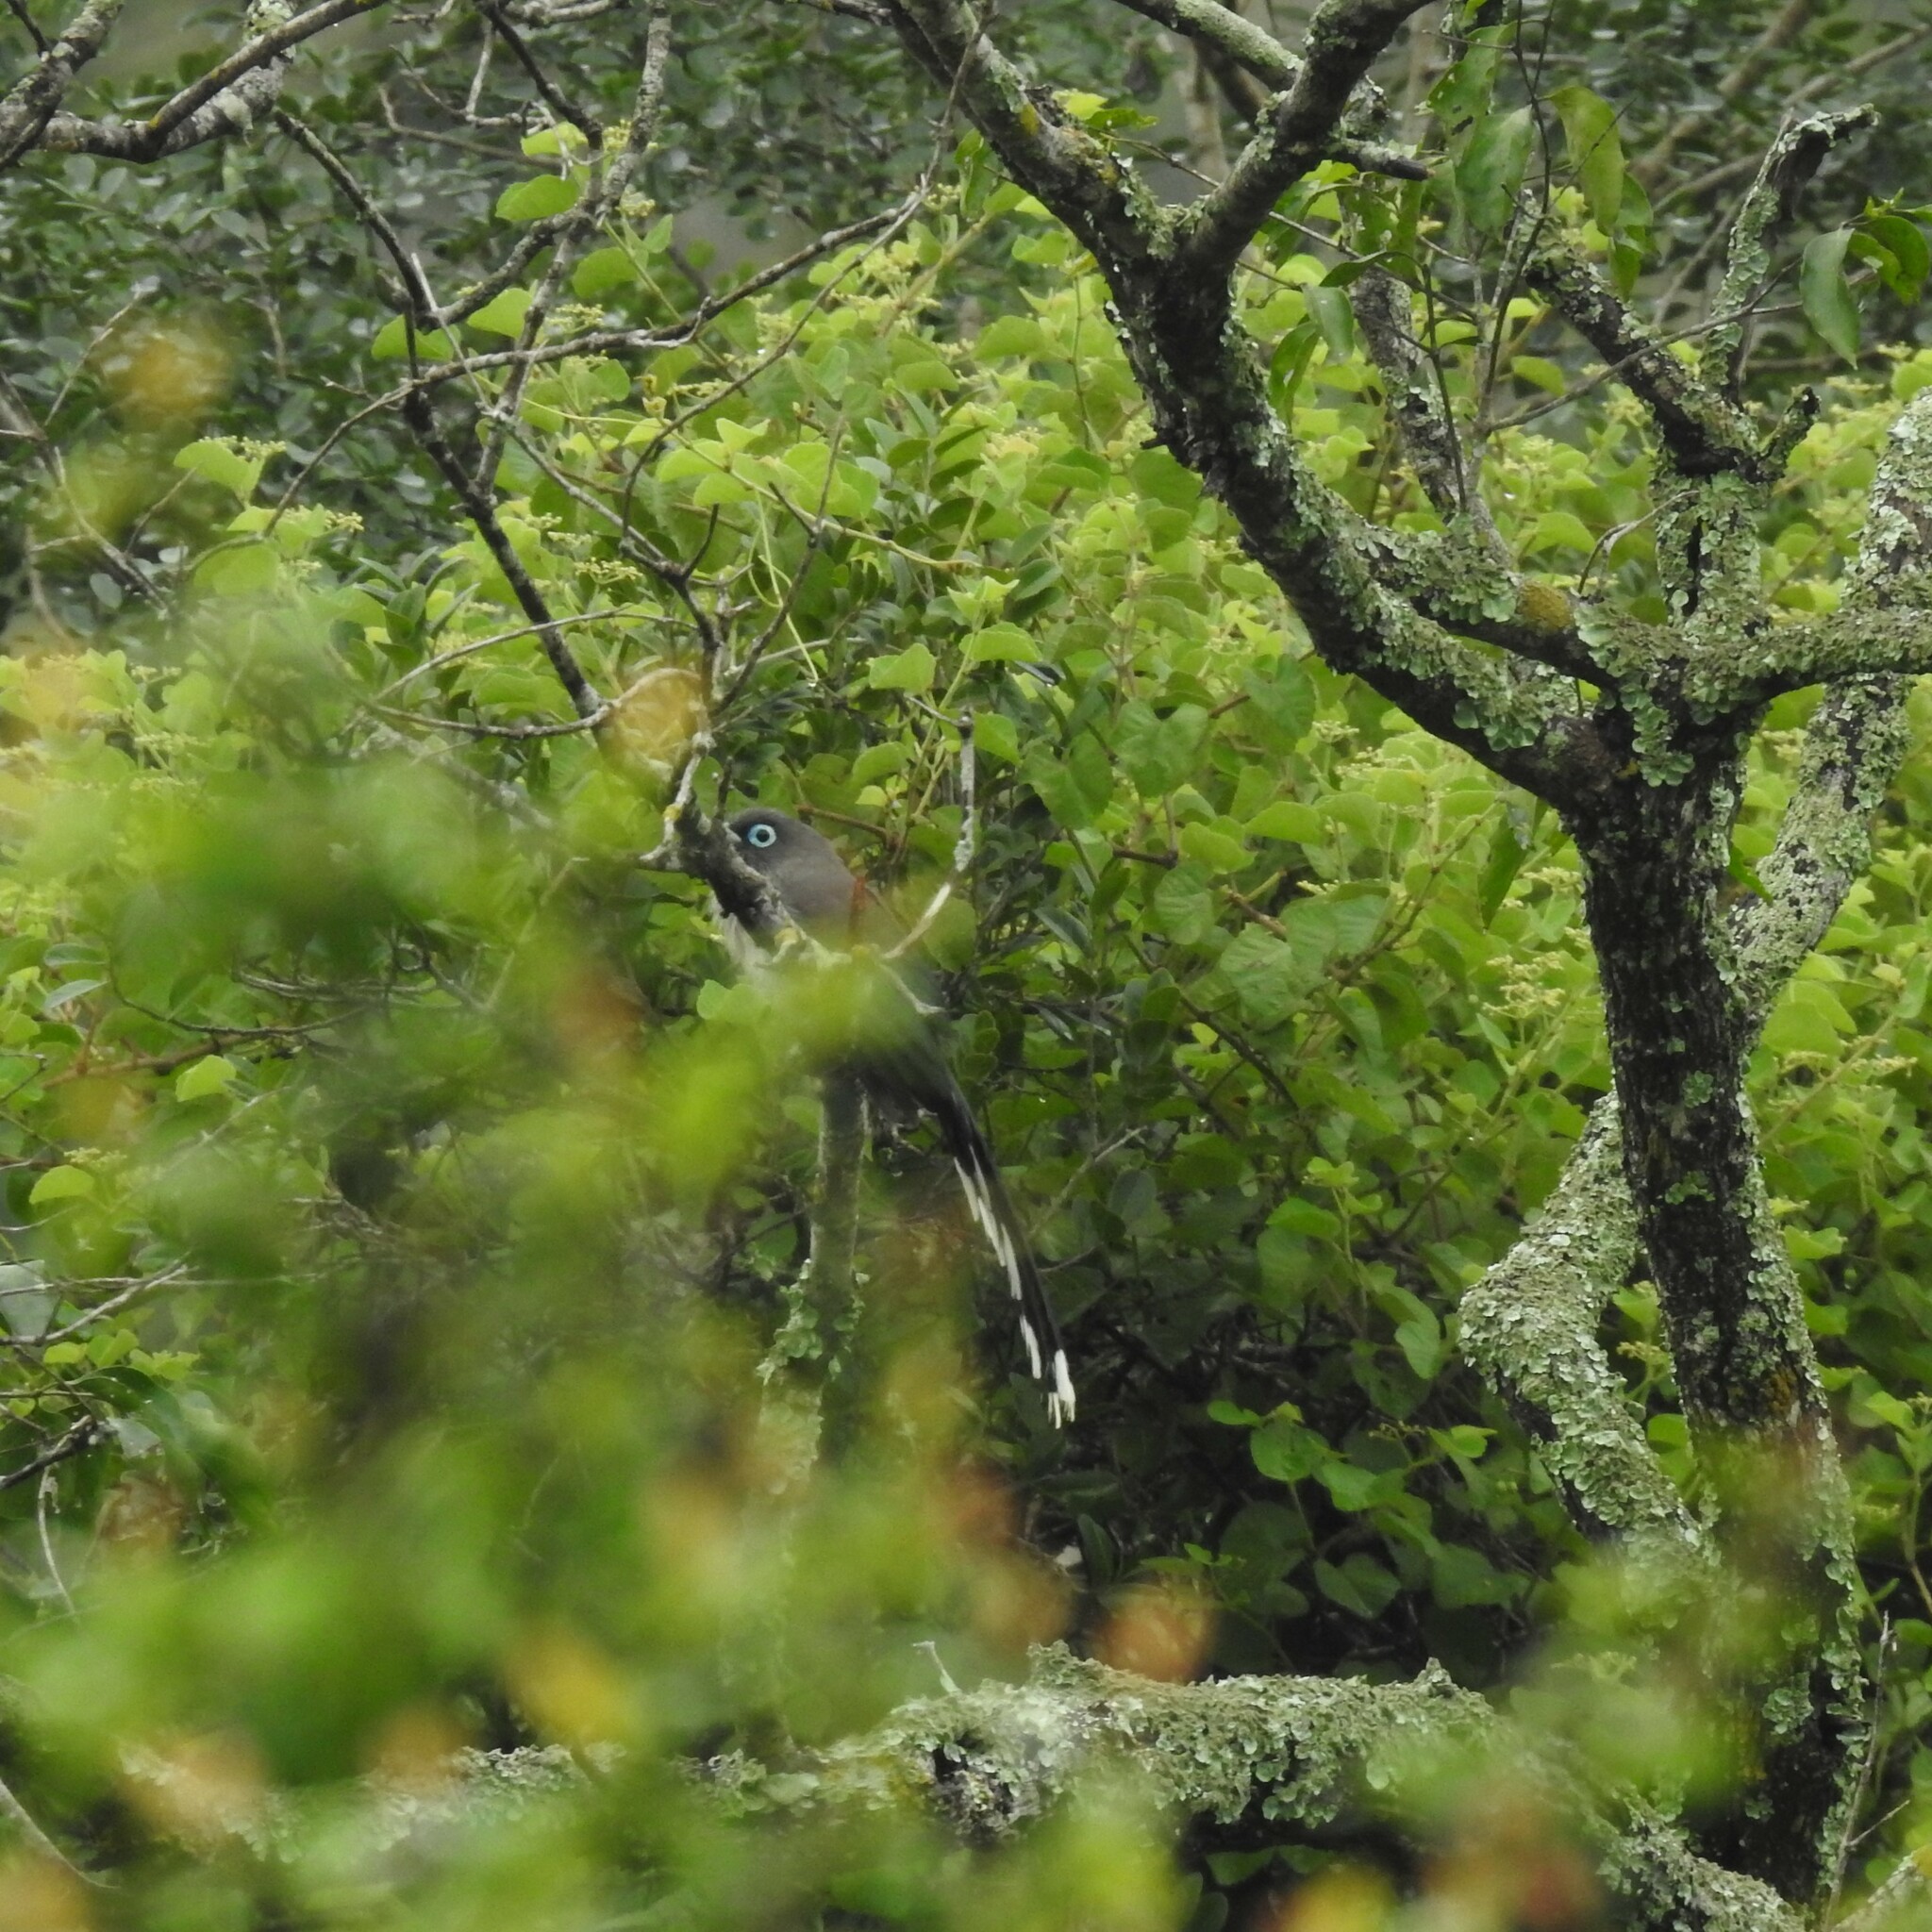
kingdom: Animalia
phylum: Chordata
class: Aves
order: Cuculiformes
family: Cuculidae
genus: Rhopodytes
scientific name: Rhopodytes viridirostris
